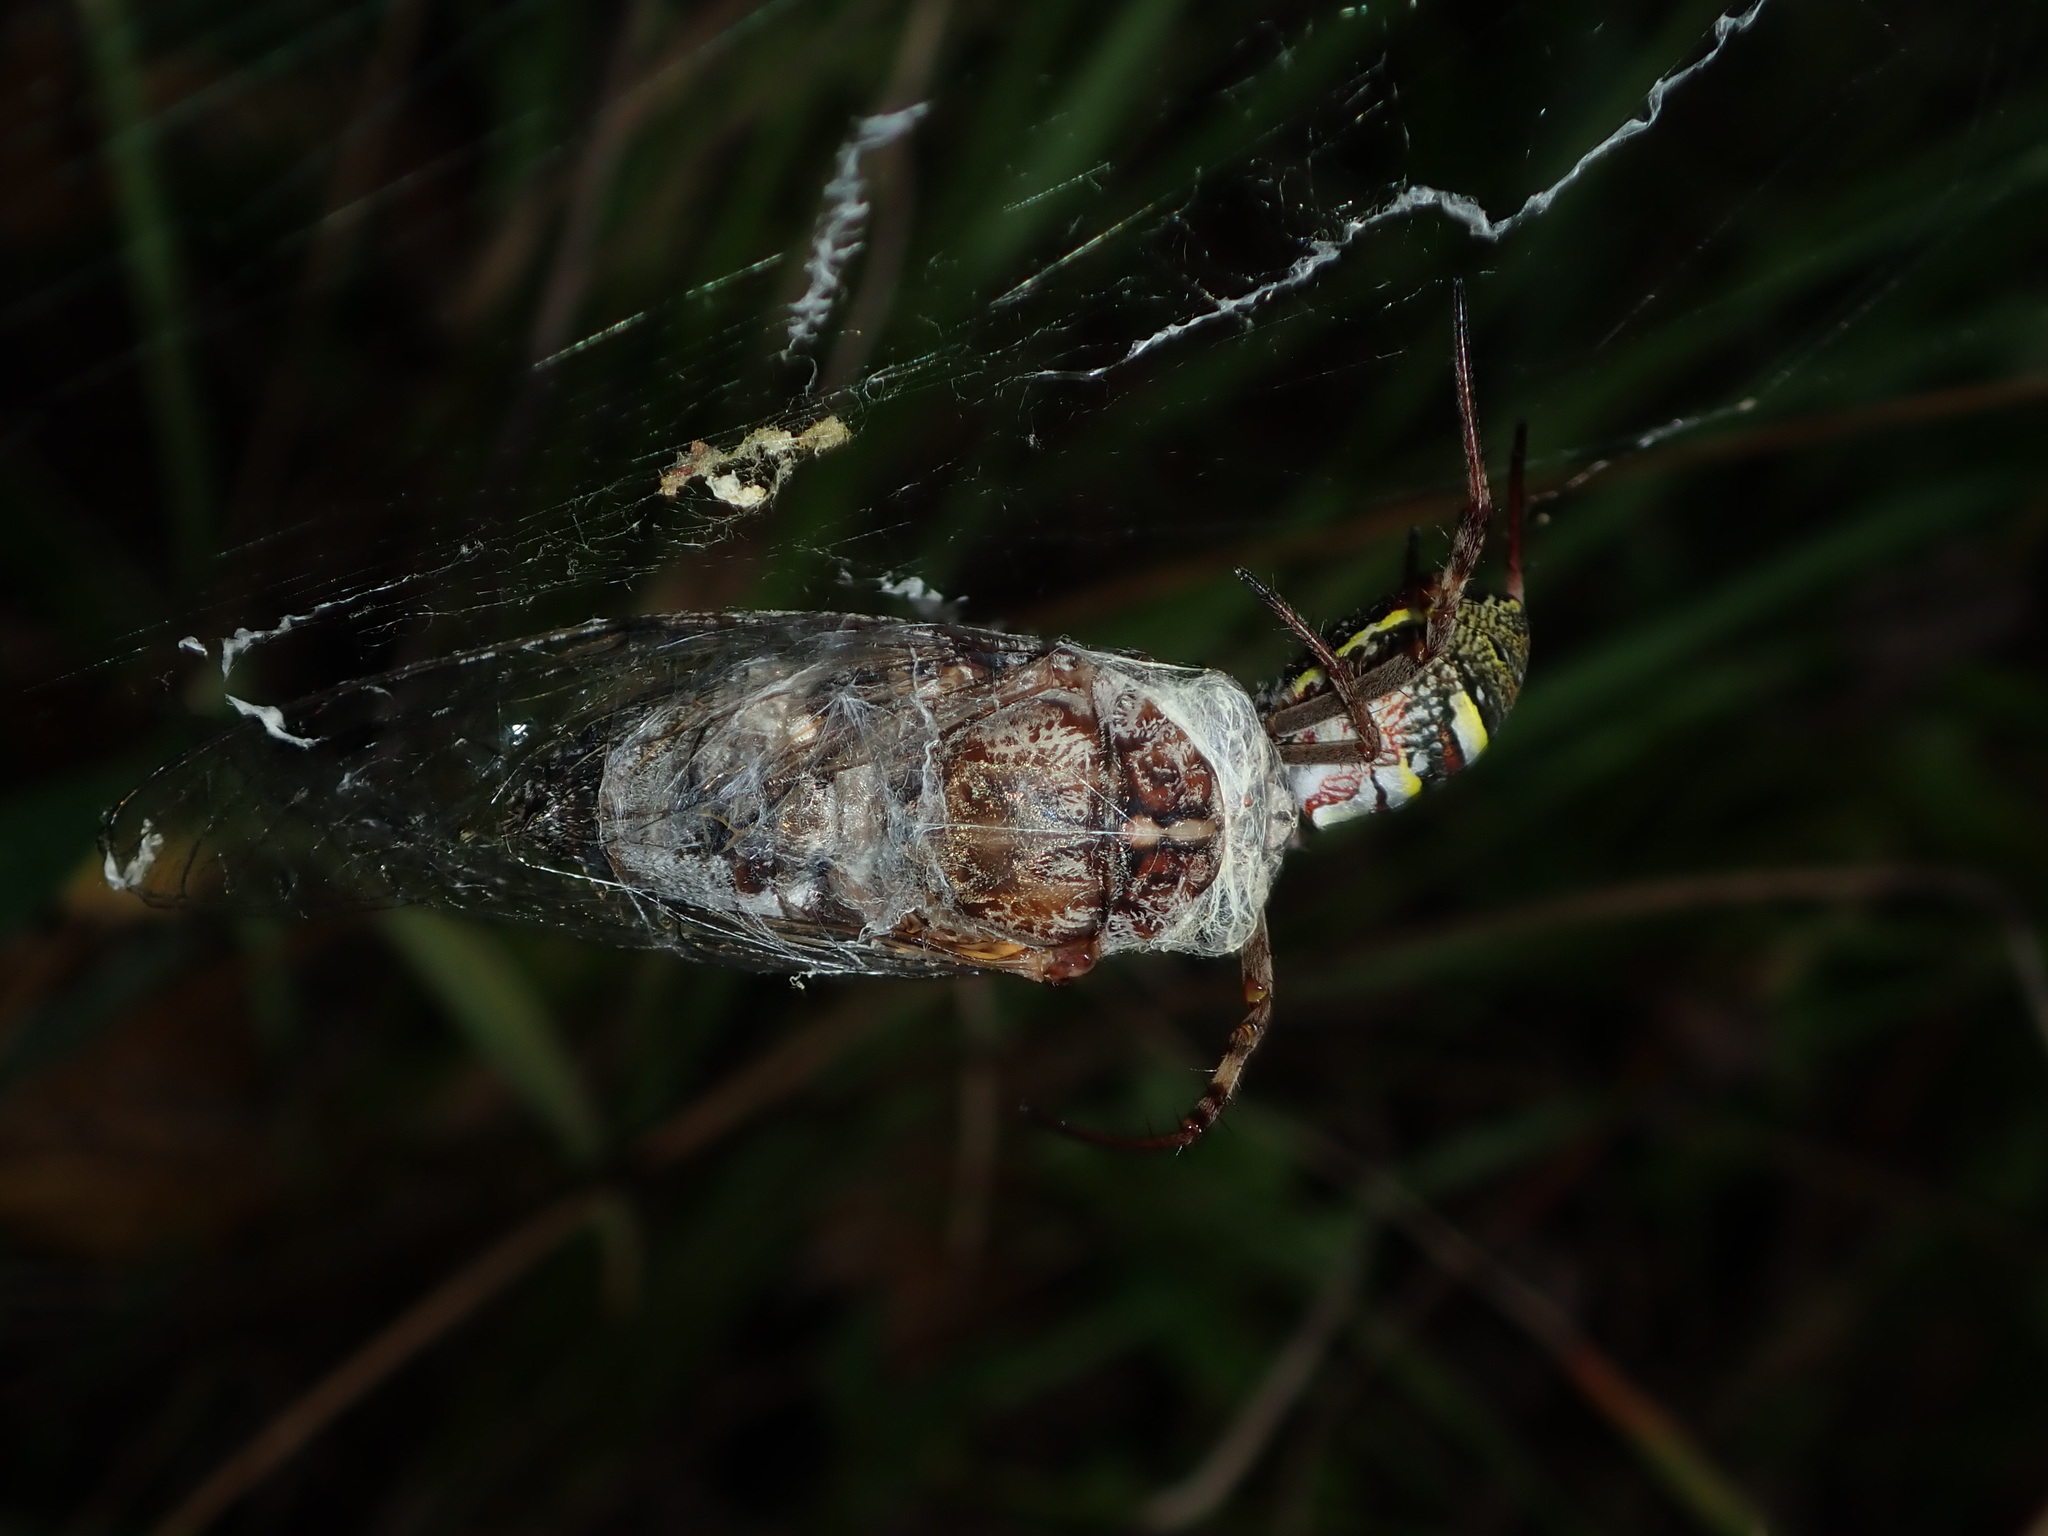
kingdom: Animalia
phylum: Arthropoda
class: Arachnida
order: Araneae
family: Araneidae
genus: Argiope
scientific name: Argiope keyserlingi
